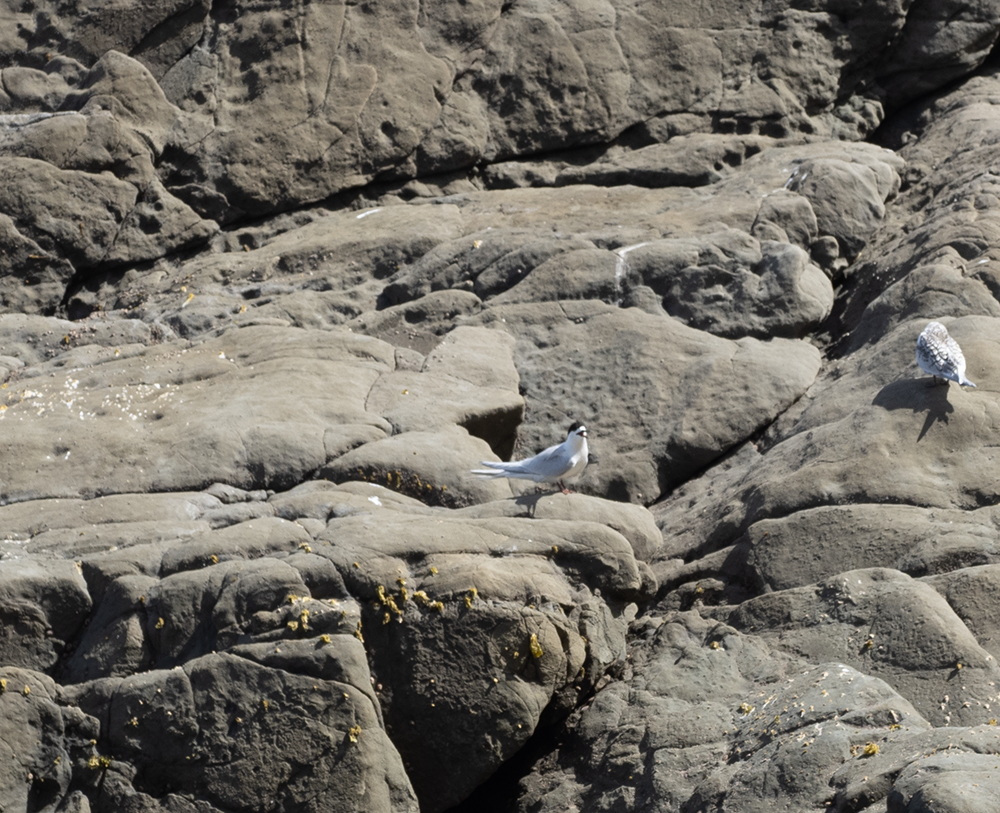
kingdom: Animalia
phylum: Chordata
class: Aves
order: Charadriiformes
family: Laridae
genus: Sterna
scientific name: Sterna striata
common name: White-fronted tern
